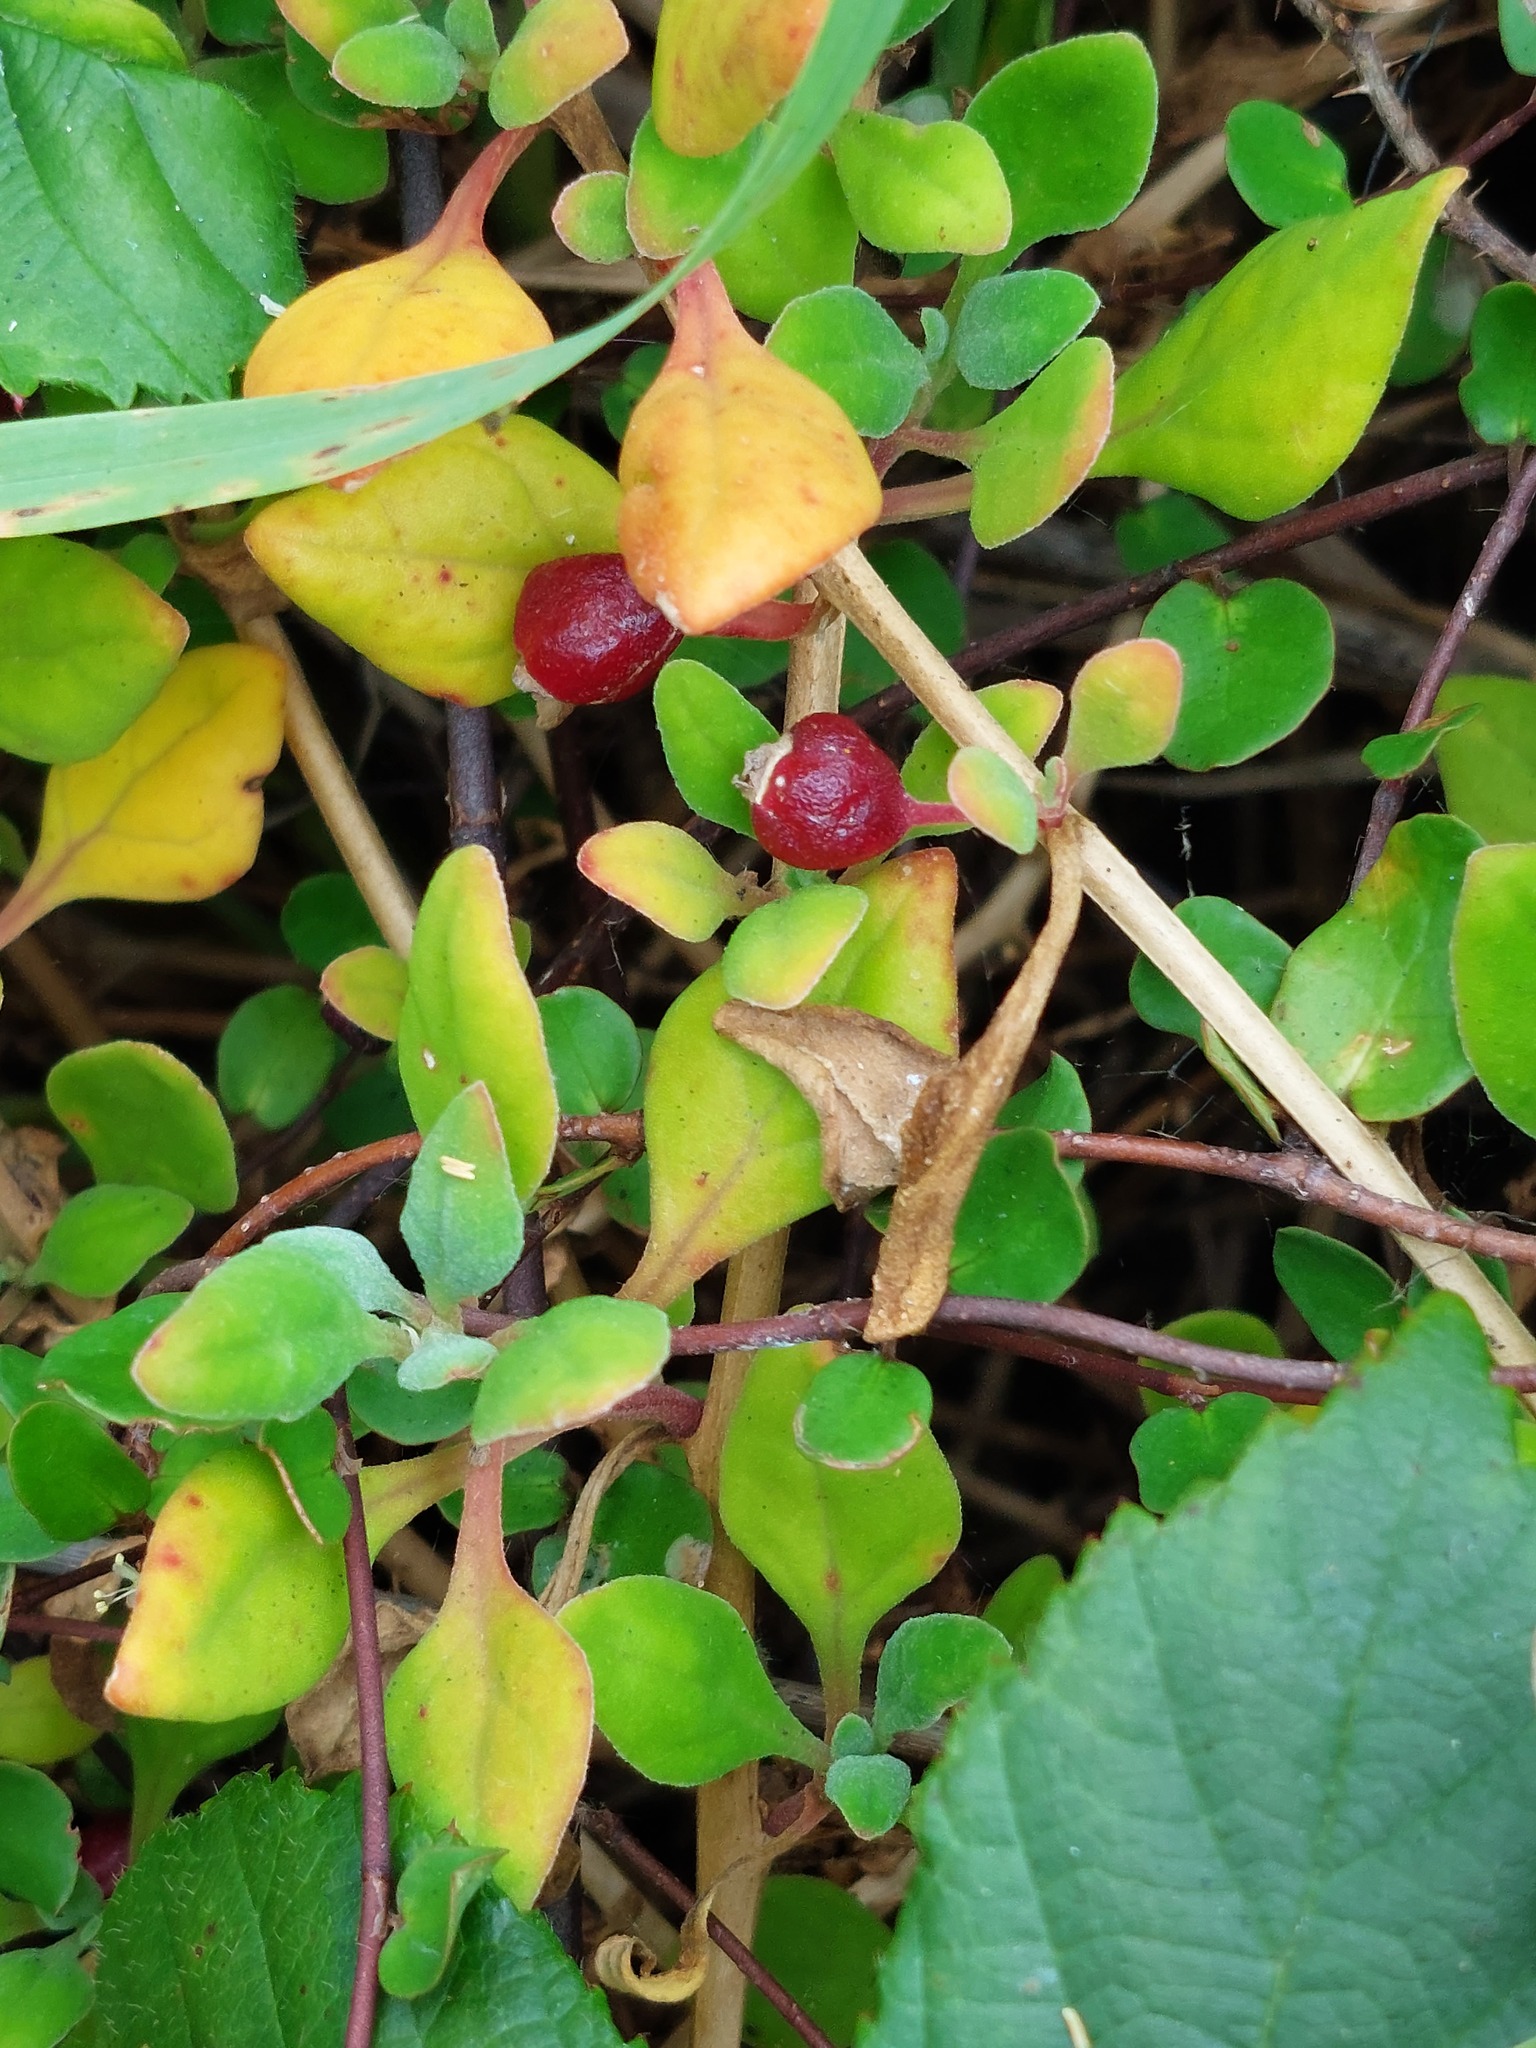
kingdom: Plantae
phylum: Tracheophyta
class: Magnoliopsida
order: Caryophyllales
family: Aizoaceae
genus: Tetragonia
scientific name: Tetragonia implexicoma
